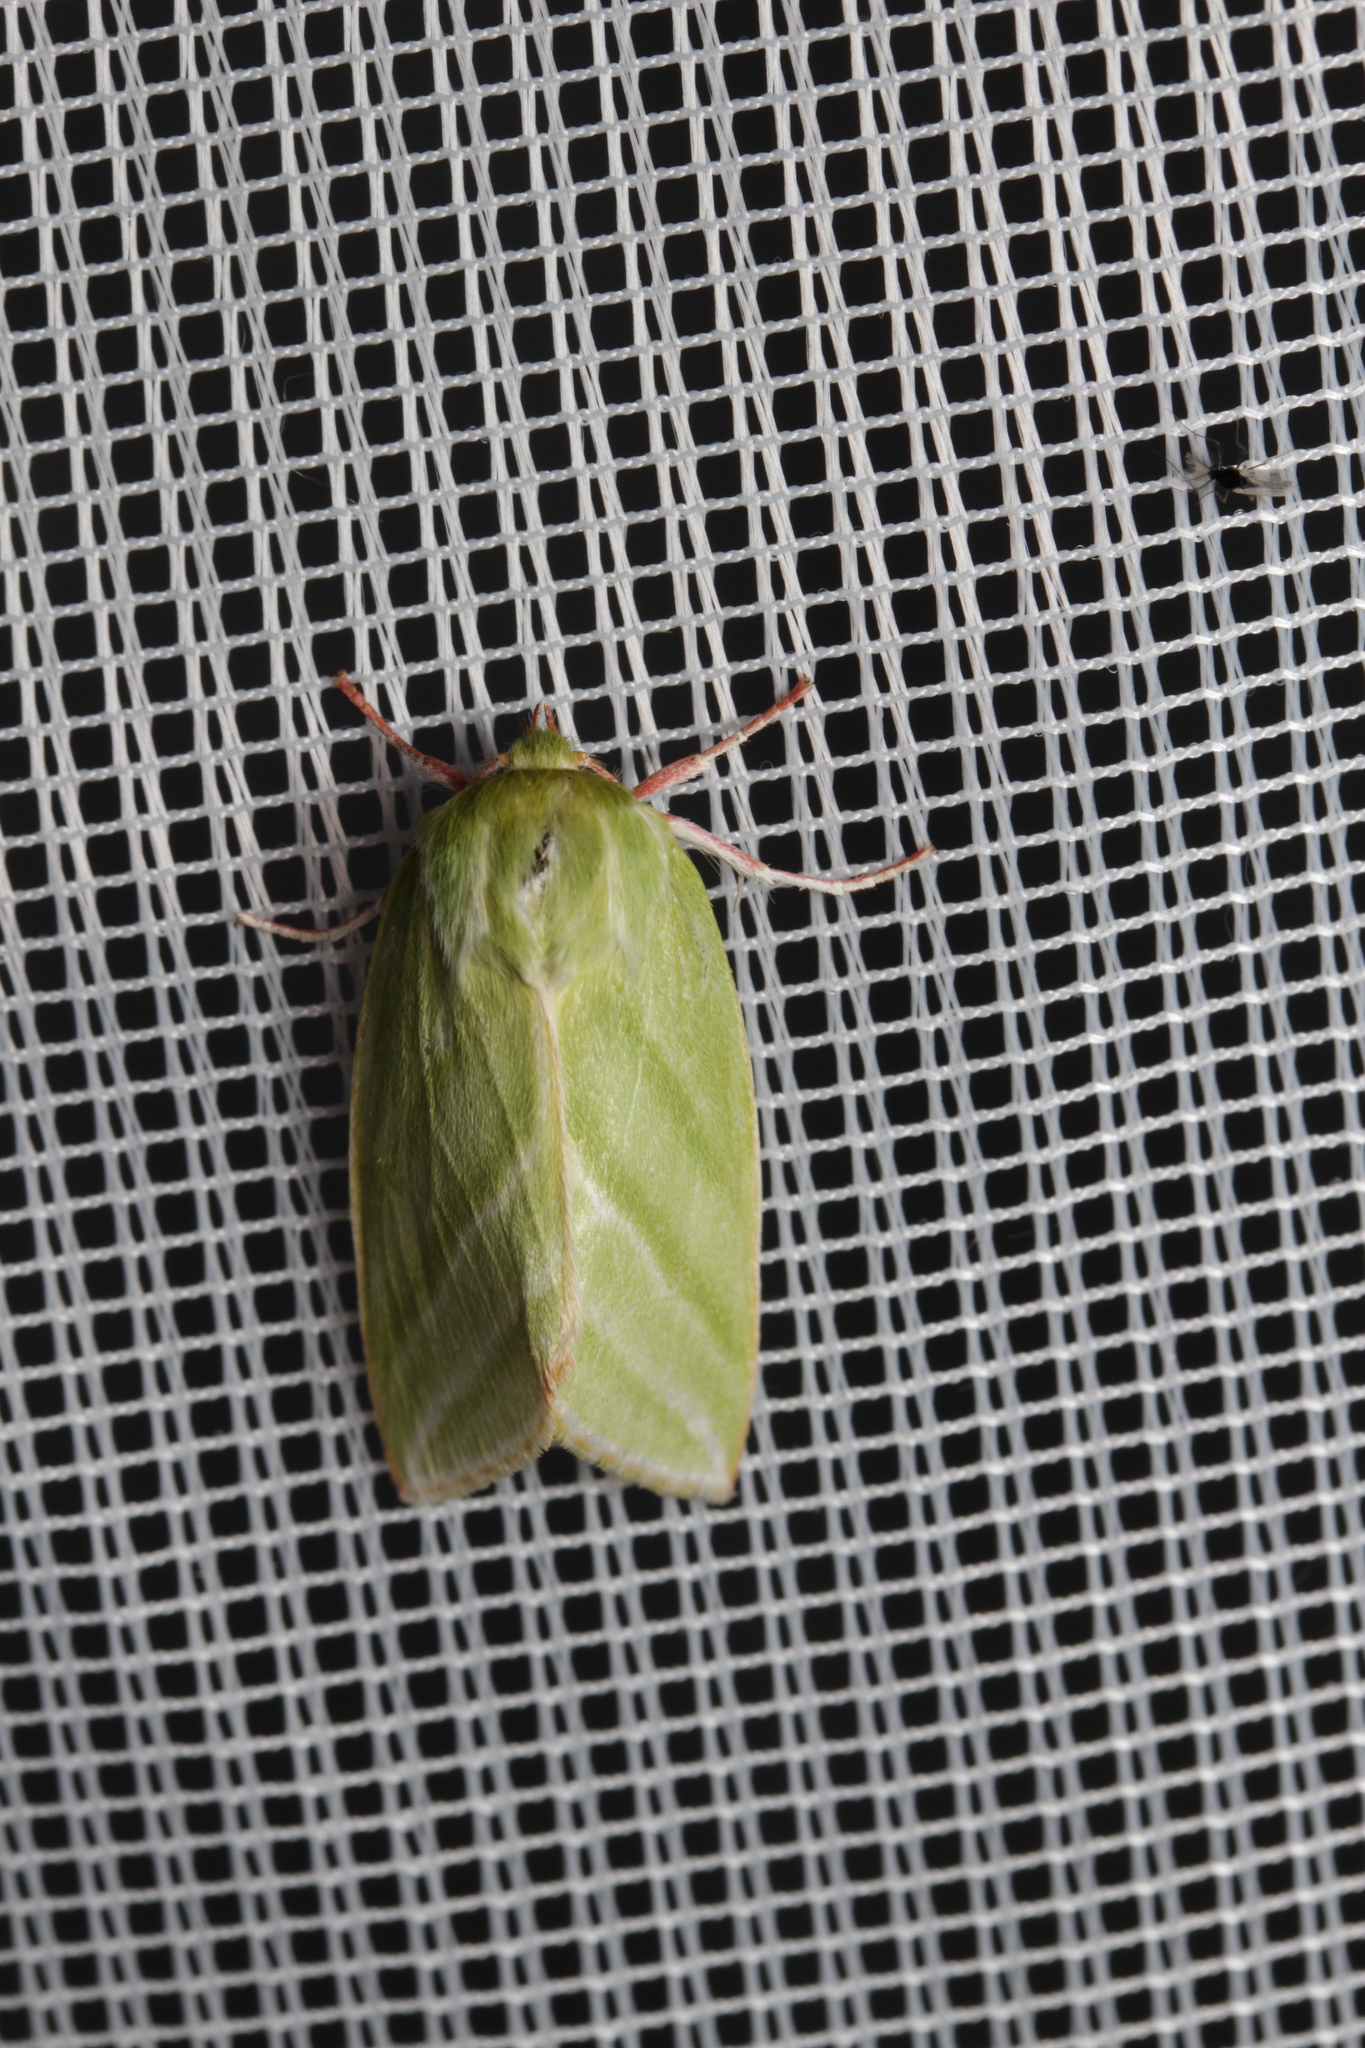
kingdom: Animalia
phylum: Arthropoda
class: Insecta
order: Lepidoptera
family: Nolidae
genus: Pseudoips
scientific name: Pseudoips prasinana
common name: Green silver-lines
